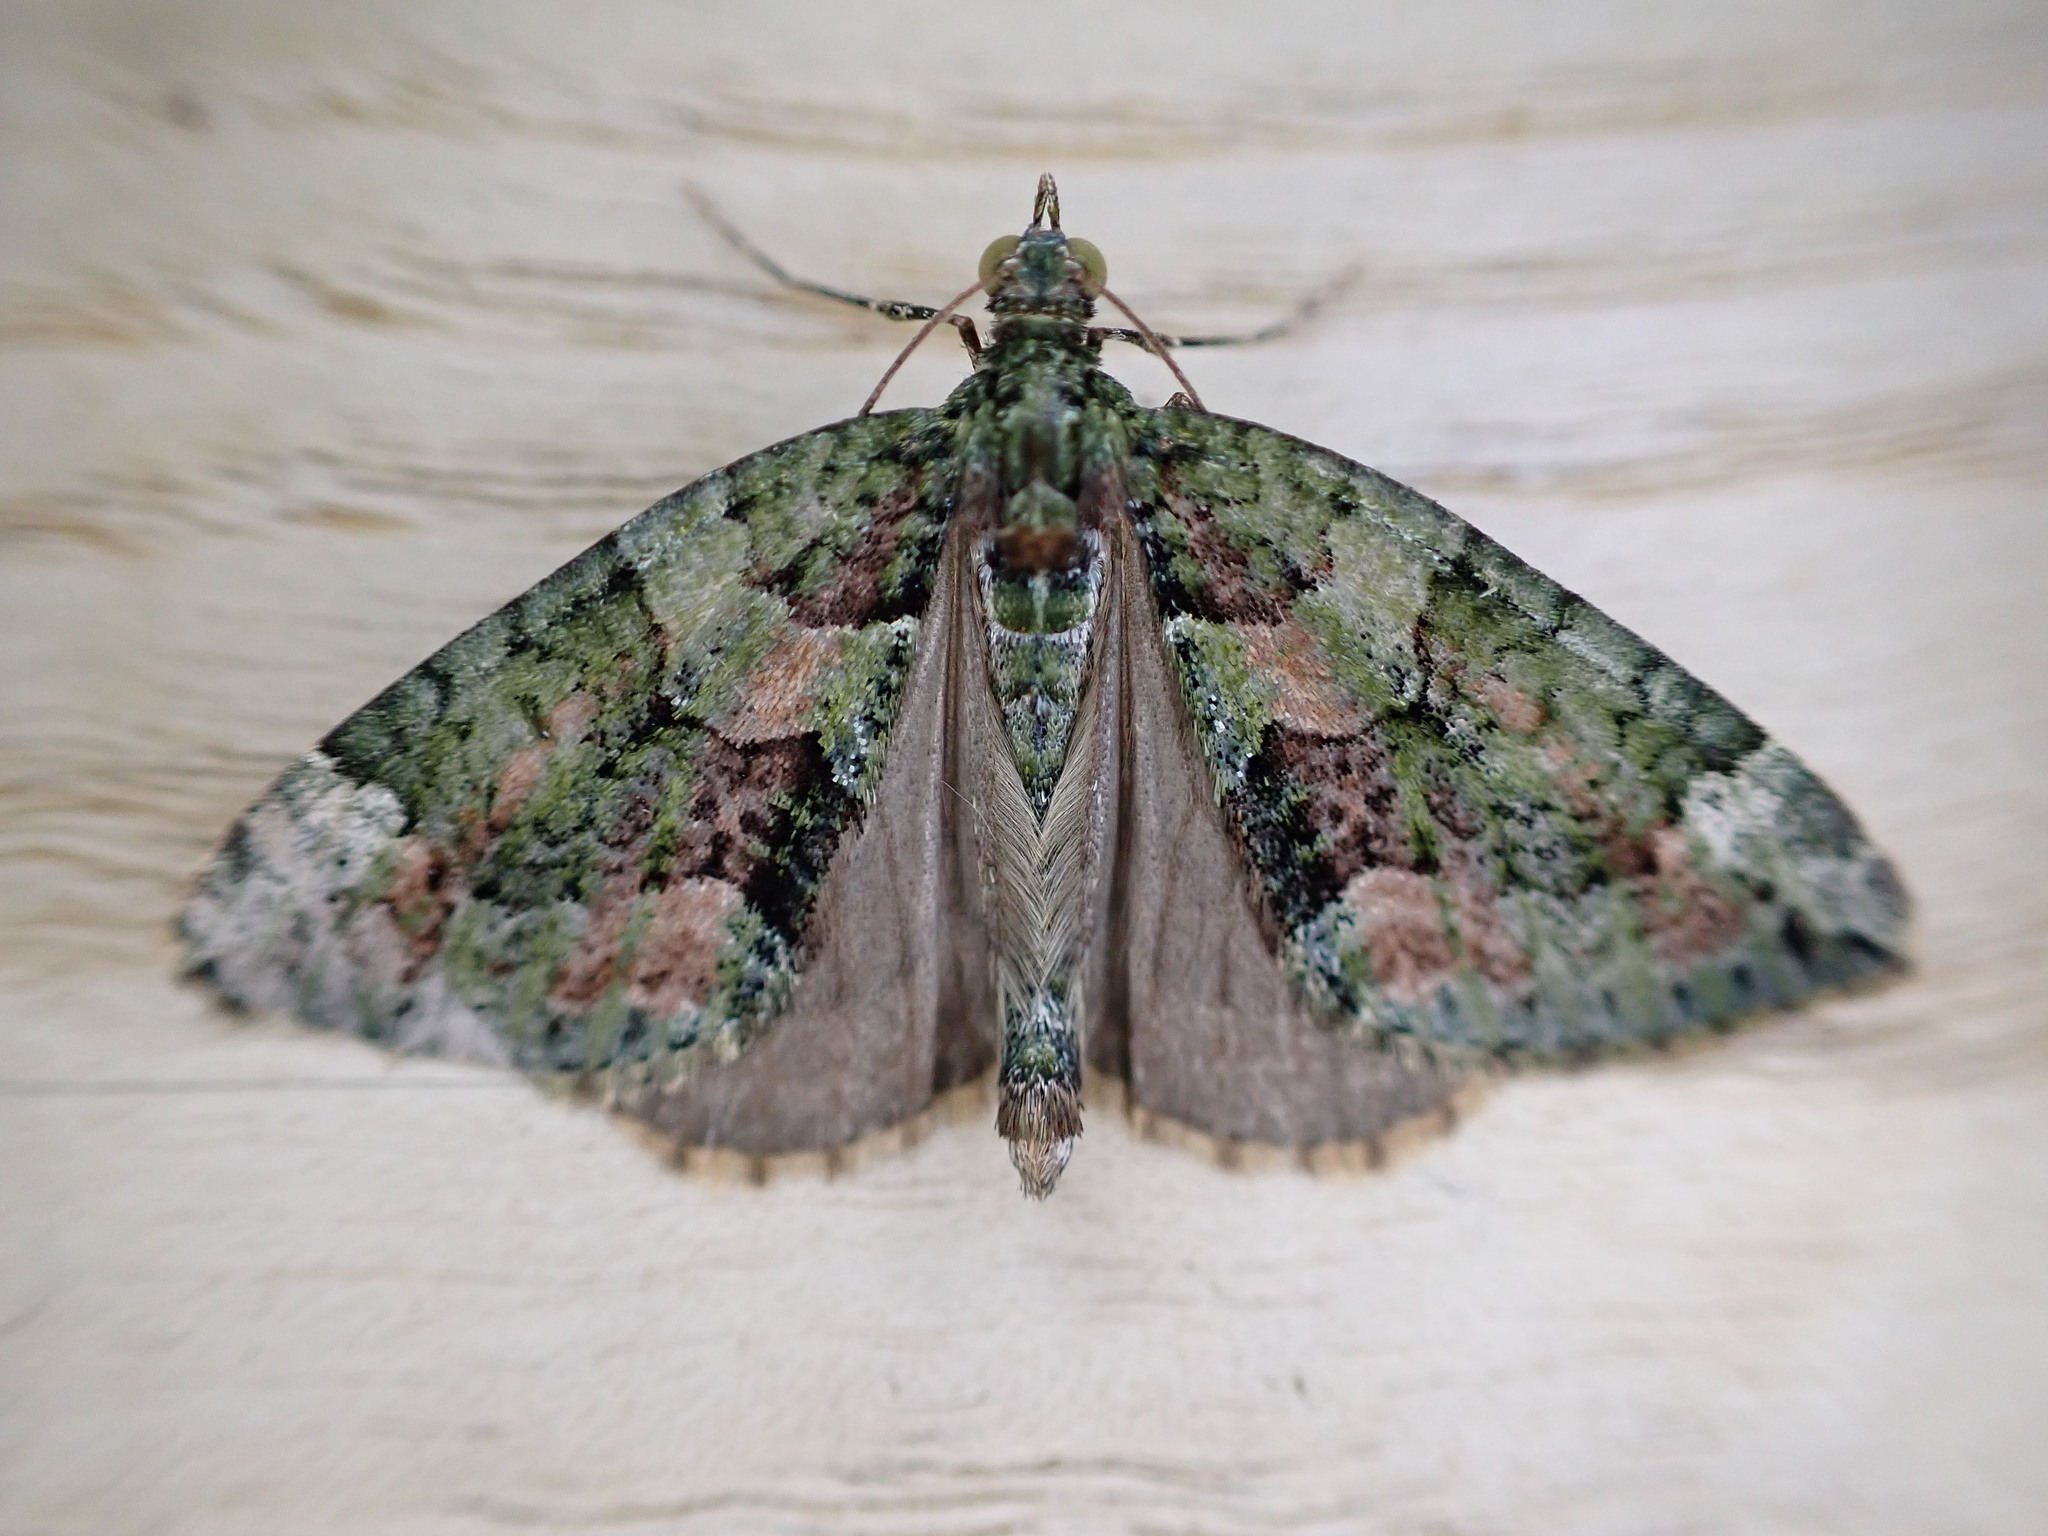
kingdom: Animalia
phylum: Arthropoda
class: Insecta
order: Lepidoptera
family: Geometridae
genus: Chloroclysta
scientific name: Chloroclysta siterata
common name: Red-green carpet
